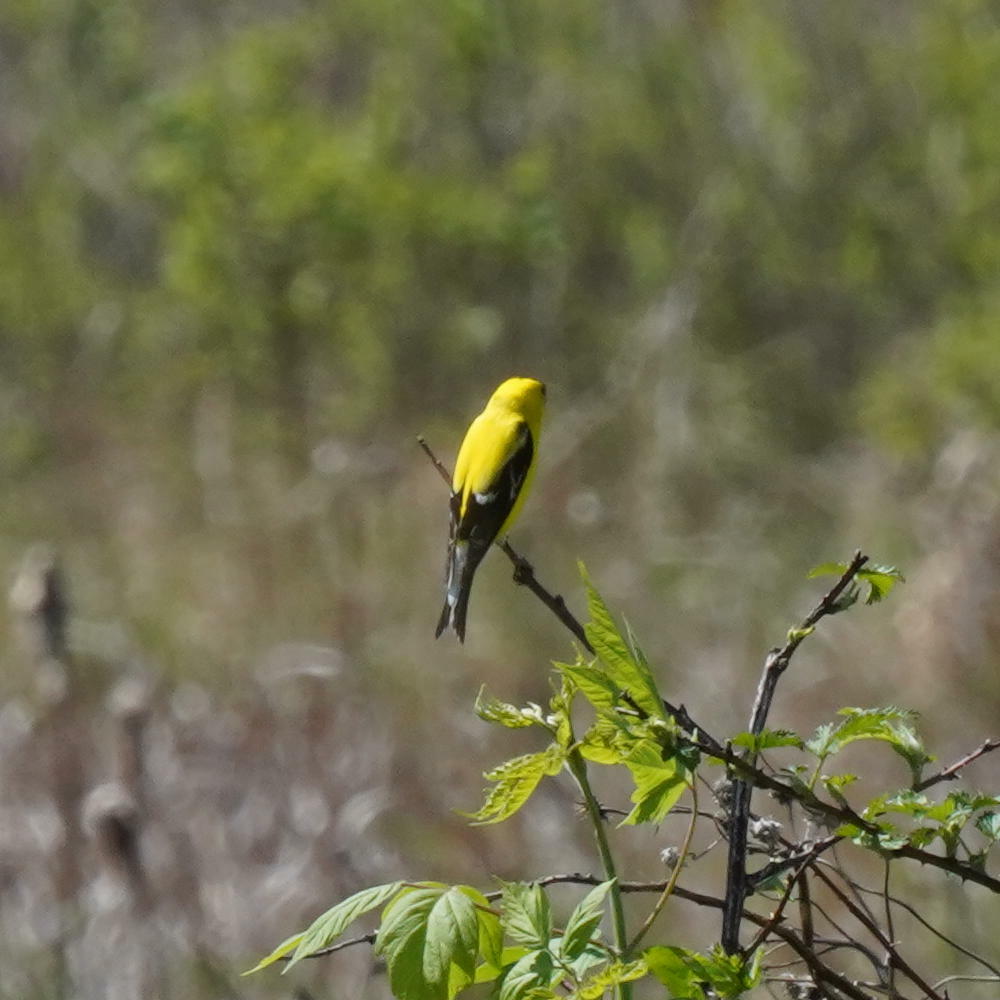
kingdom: Animalia
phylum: Chordata
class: Aves
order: Passeriformes
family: Fringillidae
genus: Spinus
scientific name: Spinus tristis
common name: American goldfinch
